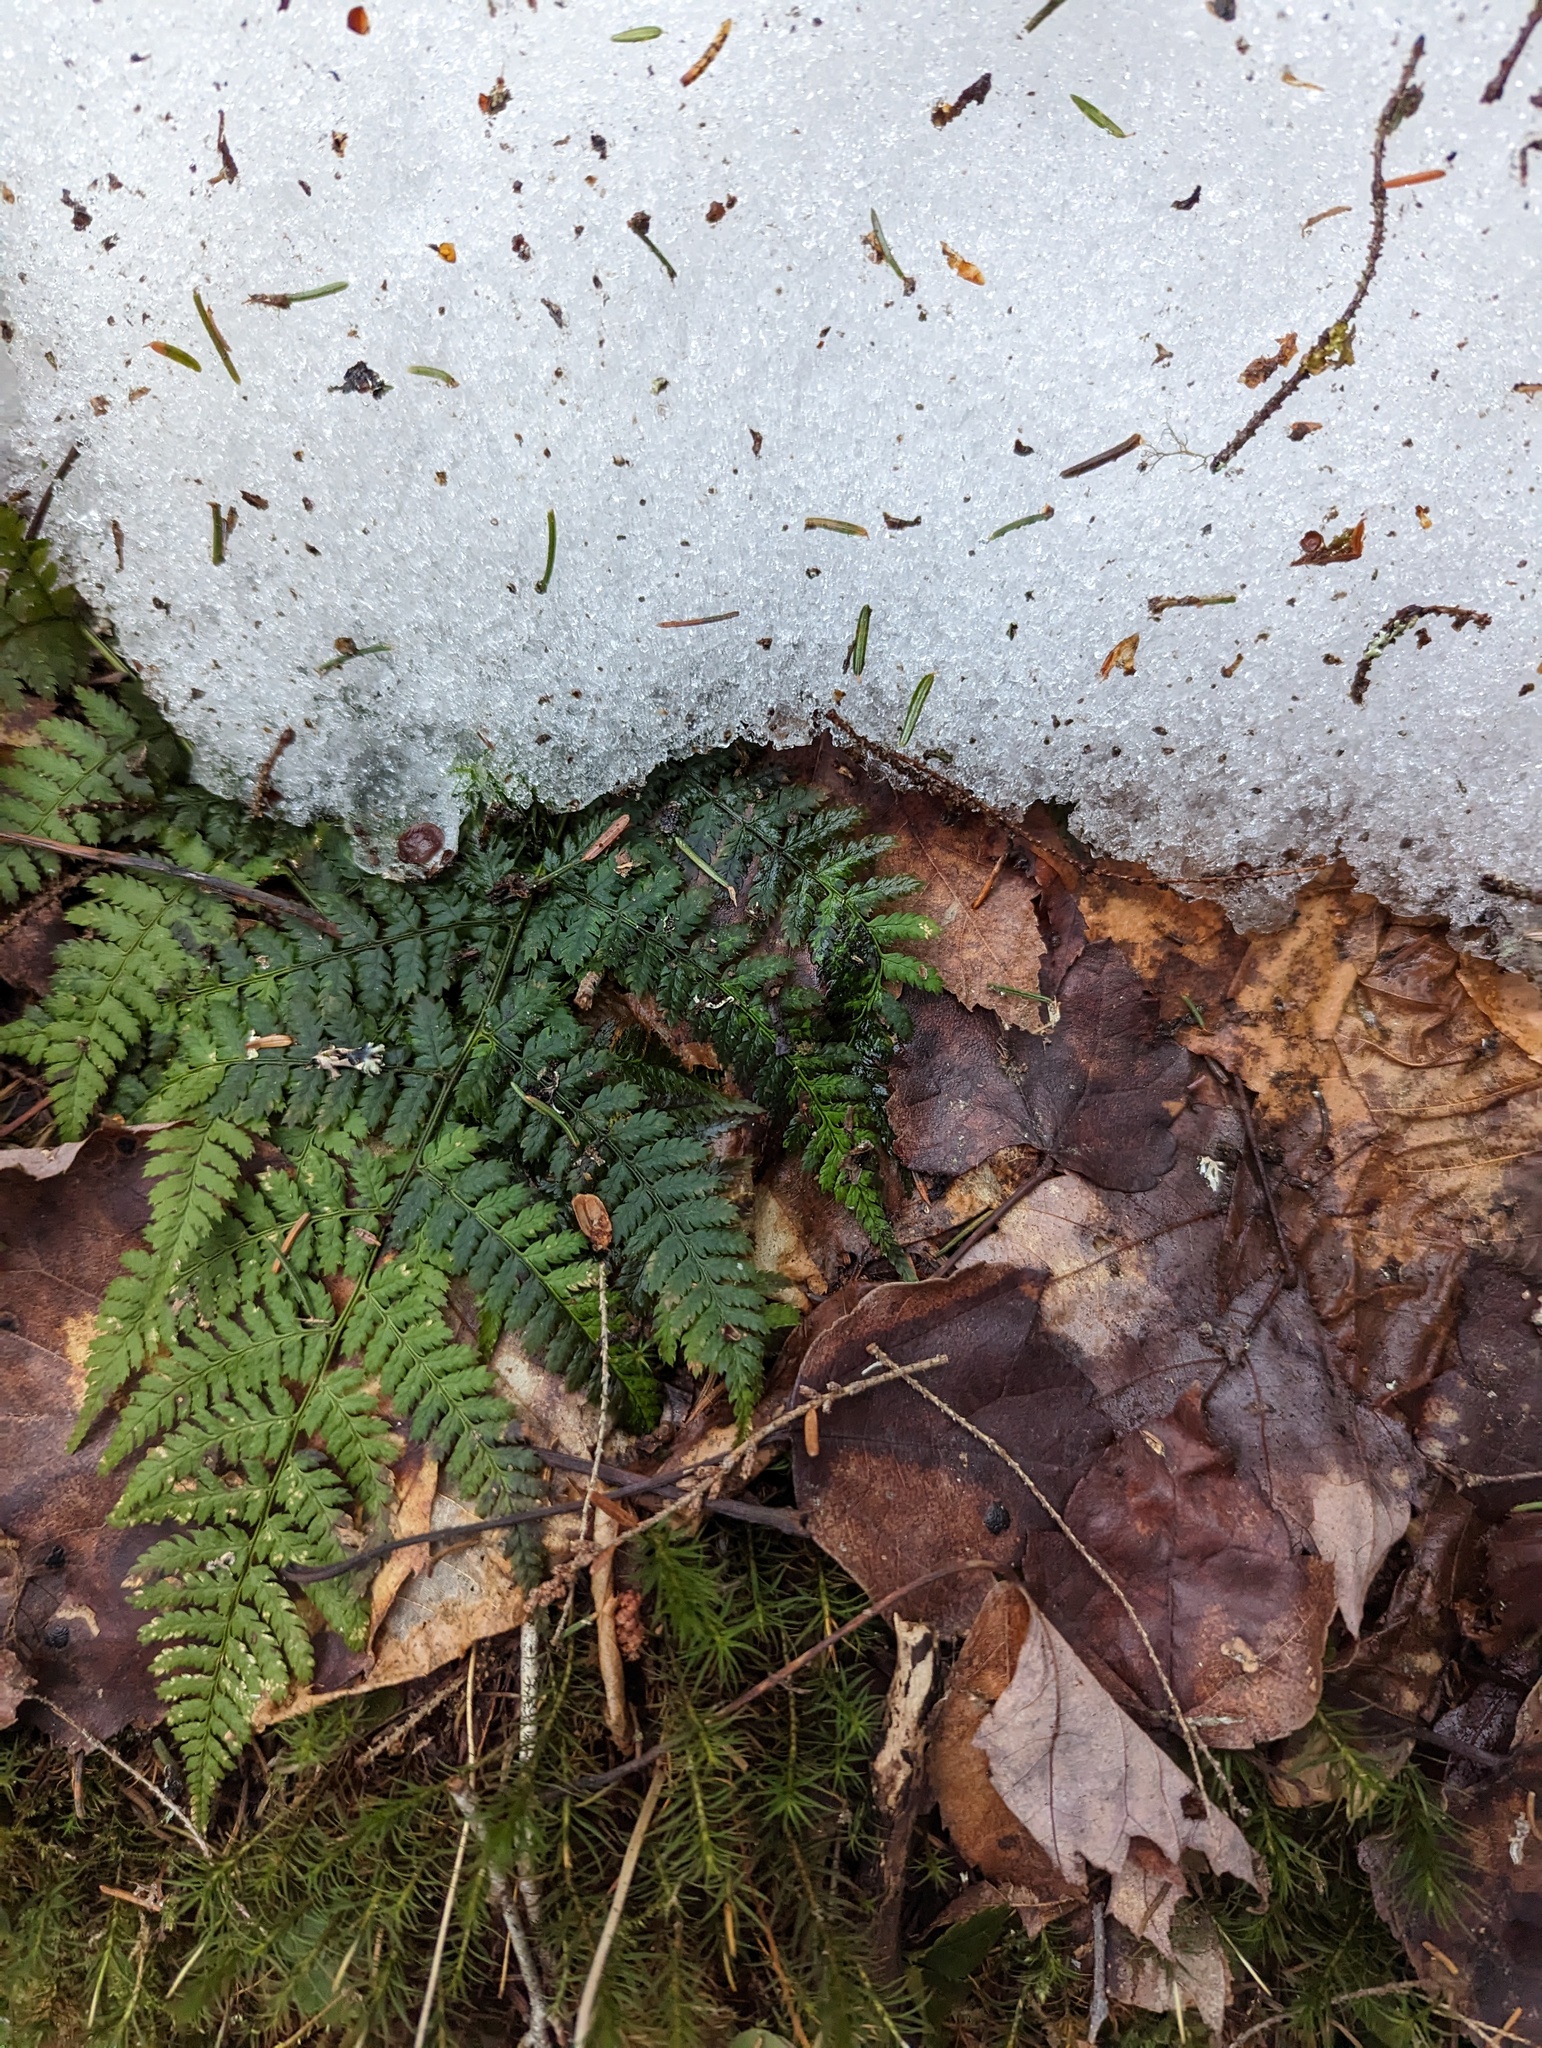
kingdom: Plantae
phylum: Tracheophyta
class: Polypodiopsida
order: Polypodiales
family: Dryopteridaceae
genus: Dryopteris
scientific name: Dryopteris intermedia
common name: Evergreen wood fern
